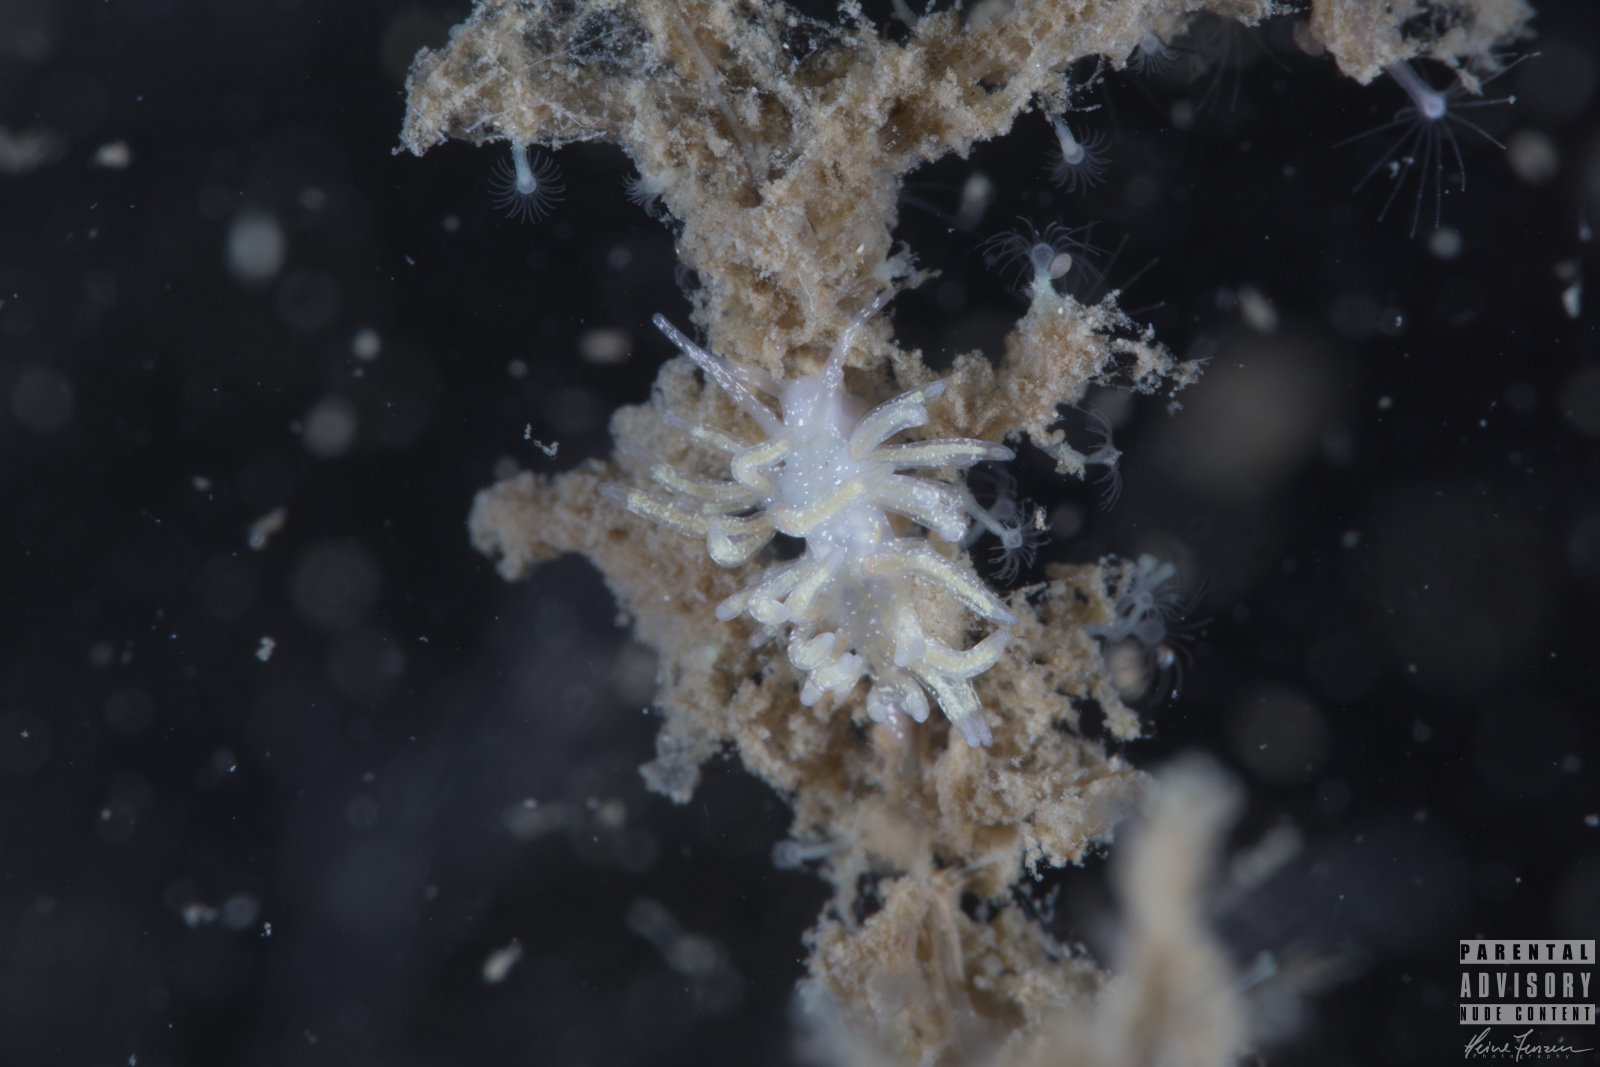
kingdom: Animalia
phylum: Mollusca
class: Gastropoda
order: Nudibranchia
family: Trinchesiidae
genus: Rubramoena
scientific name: Rubramoena rubescens
